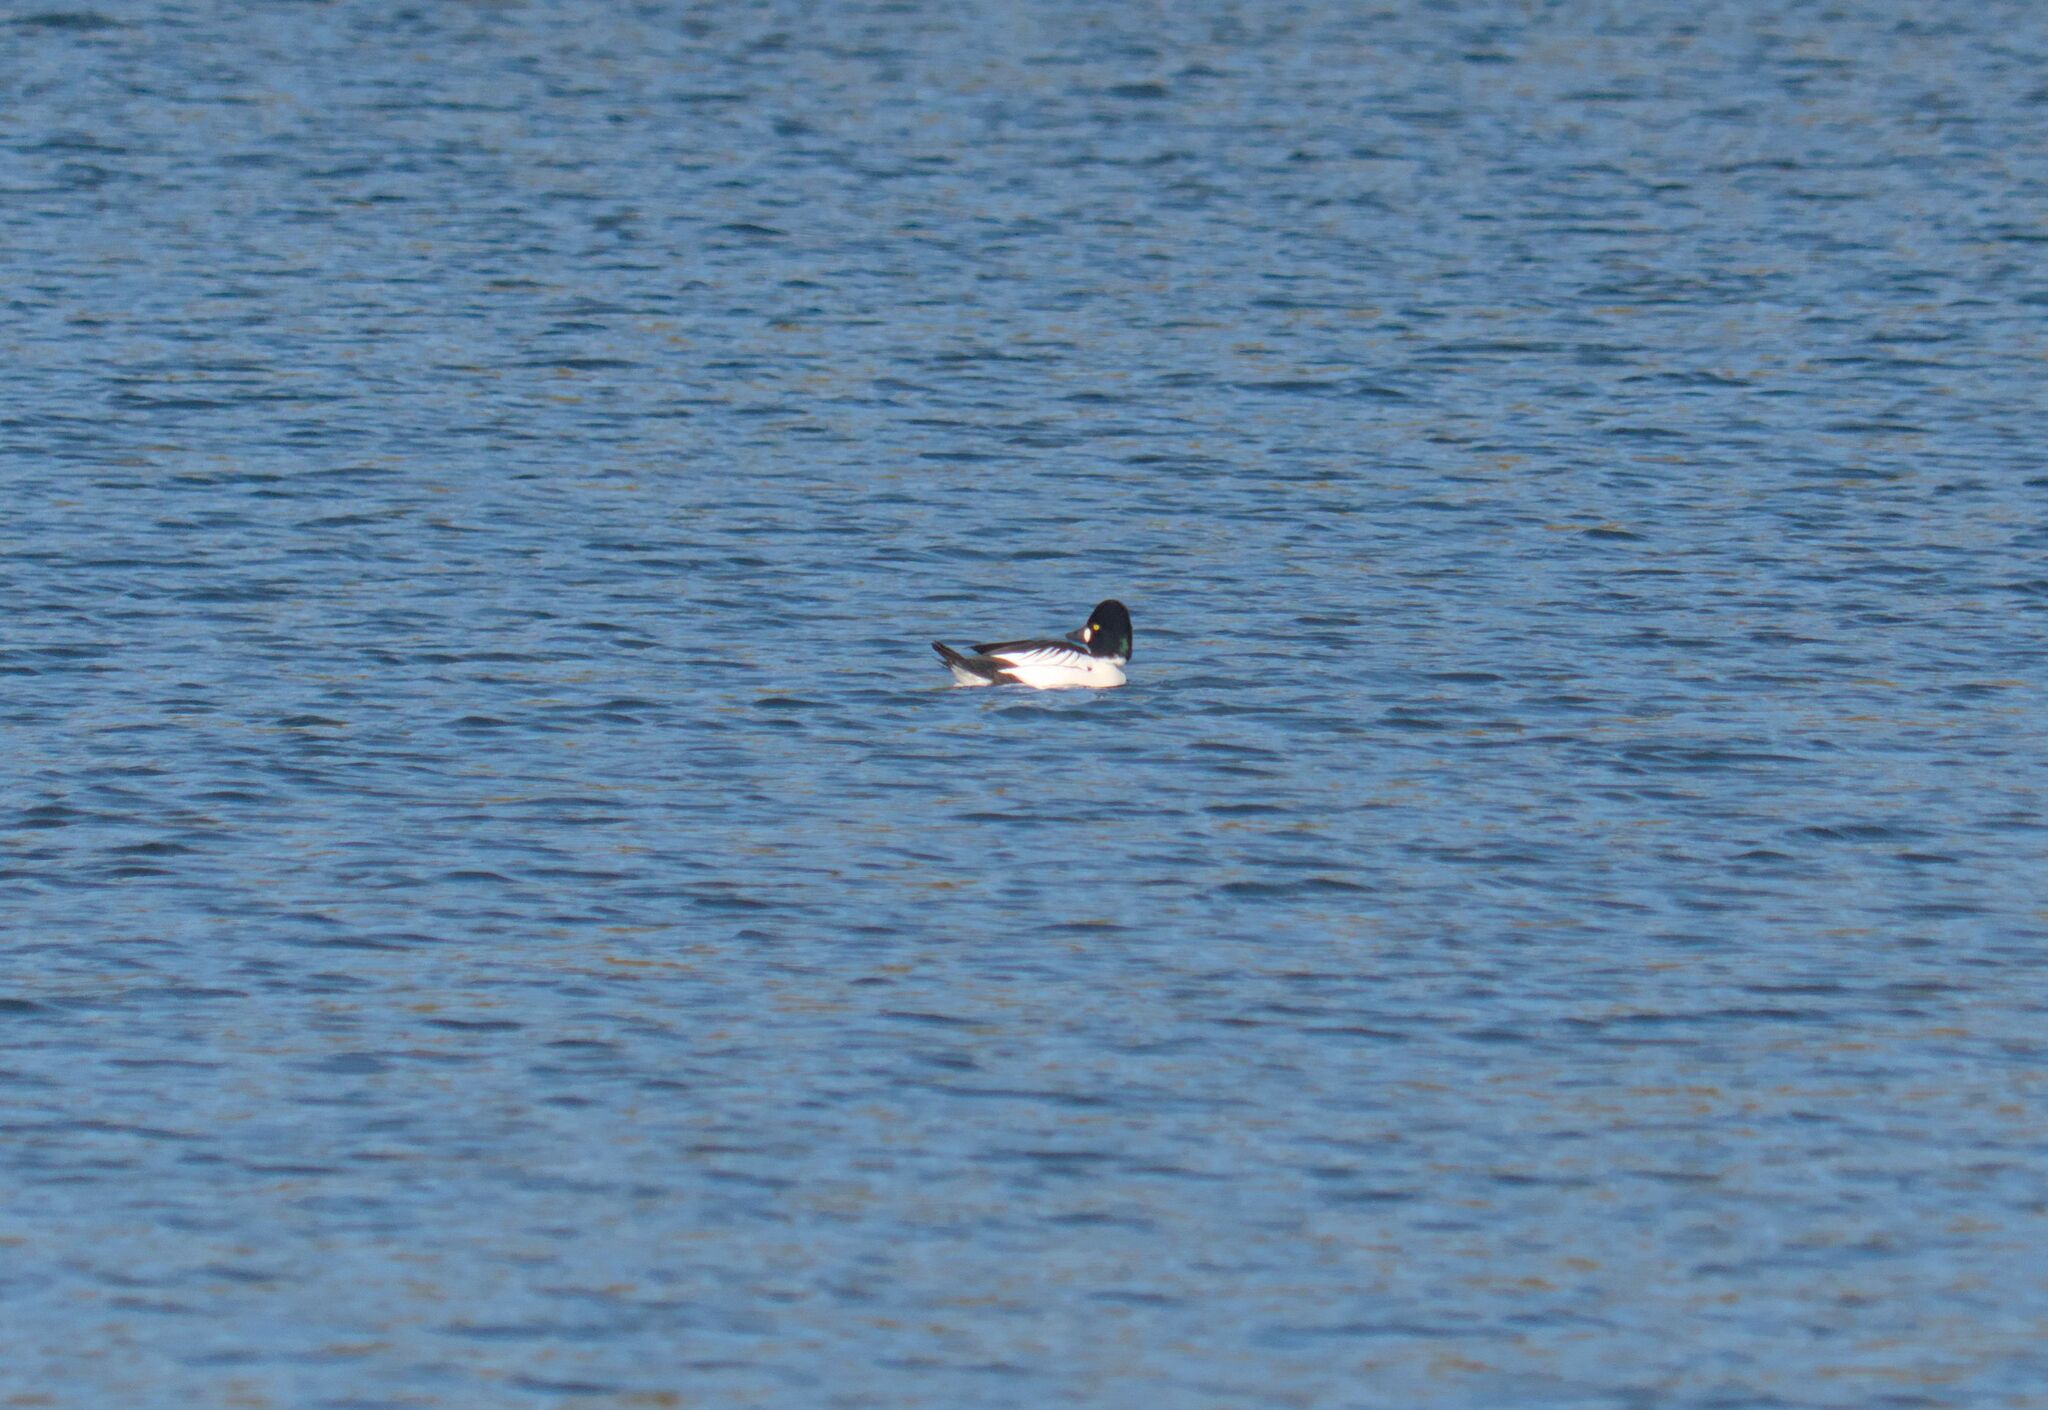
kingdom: Animalia
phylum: Chordata
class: Aves
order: Anseriformes
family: Anatidae
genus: Bucephala
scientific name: Bucephala clangula
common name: Common goldeneye
